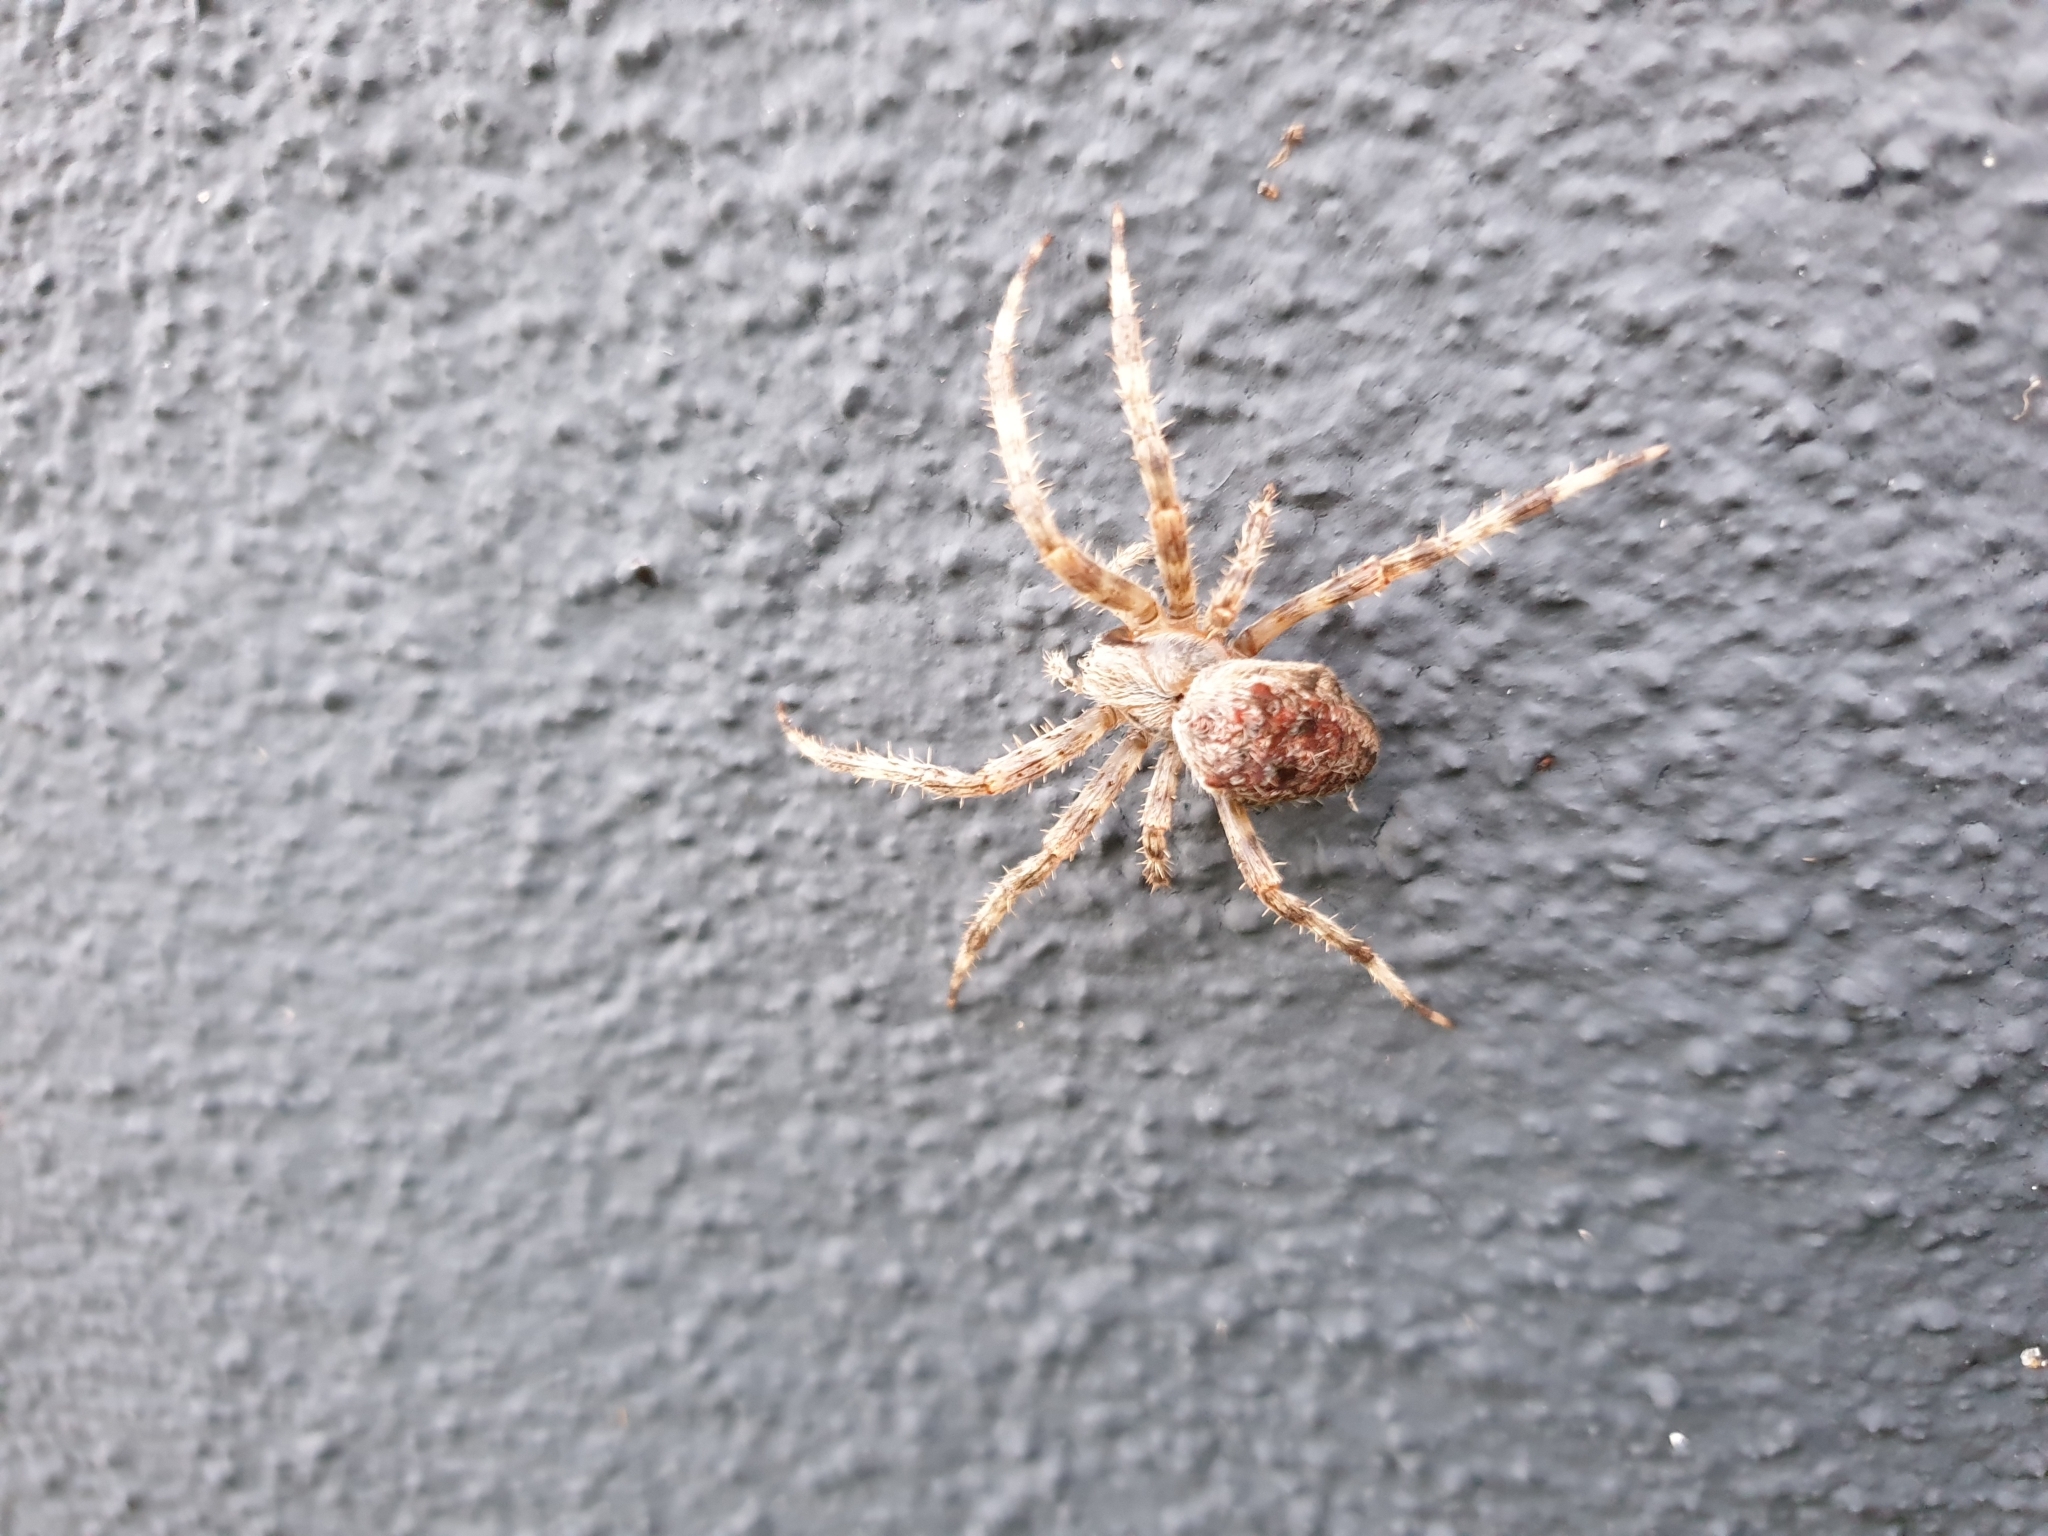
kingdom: Animalia
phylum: Arthropoda
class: Arachnida
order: Araneae
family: Araneidae
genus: Araneus
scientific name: Araneus diadematus
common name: Cross orbweaver
